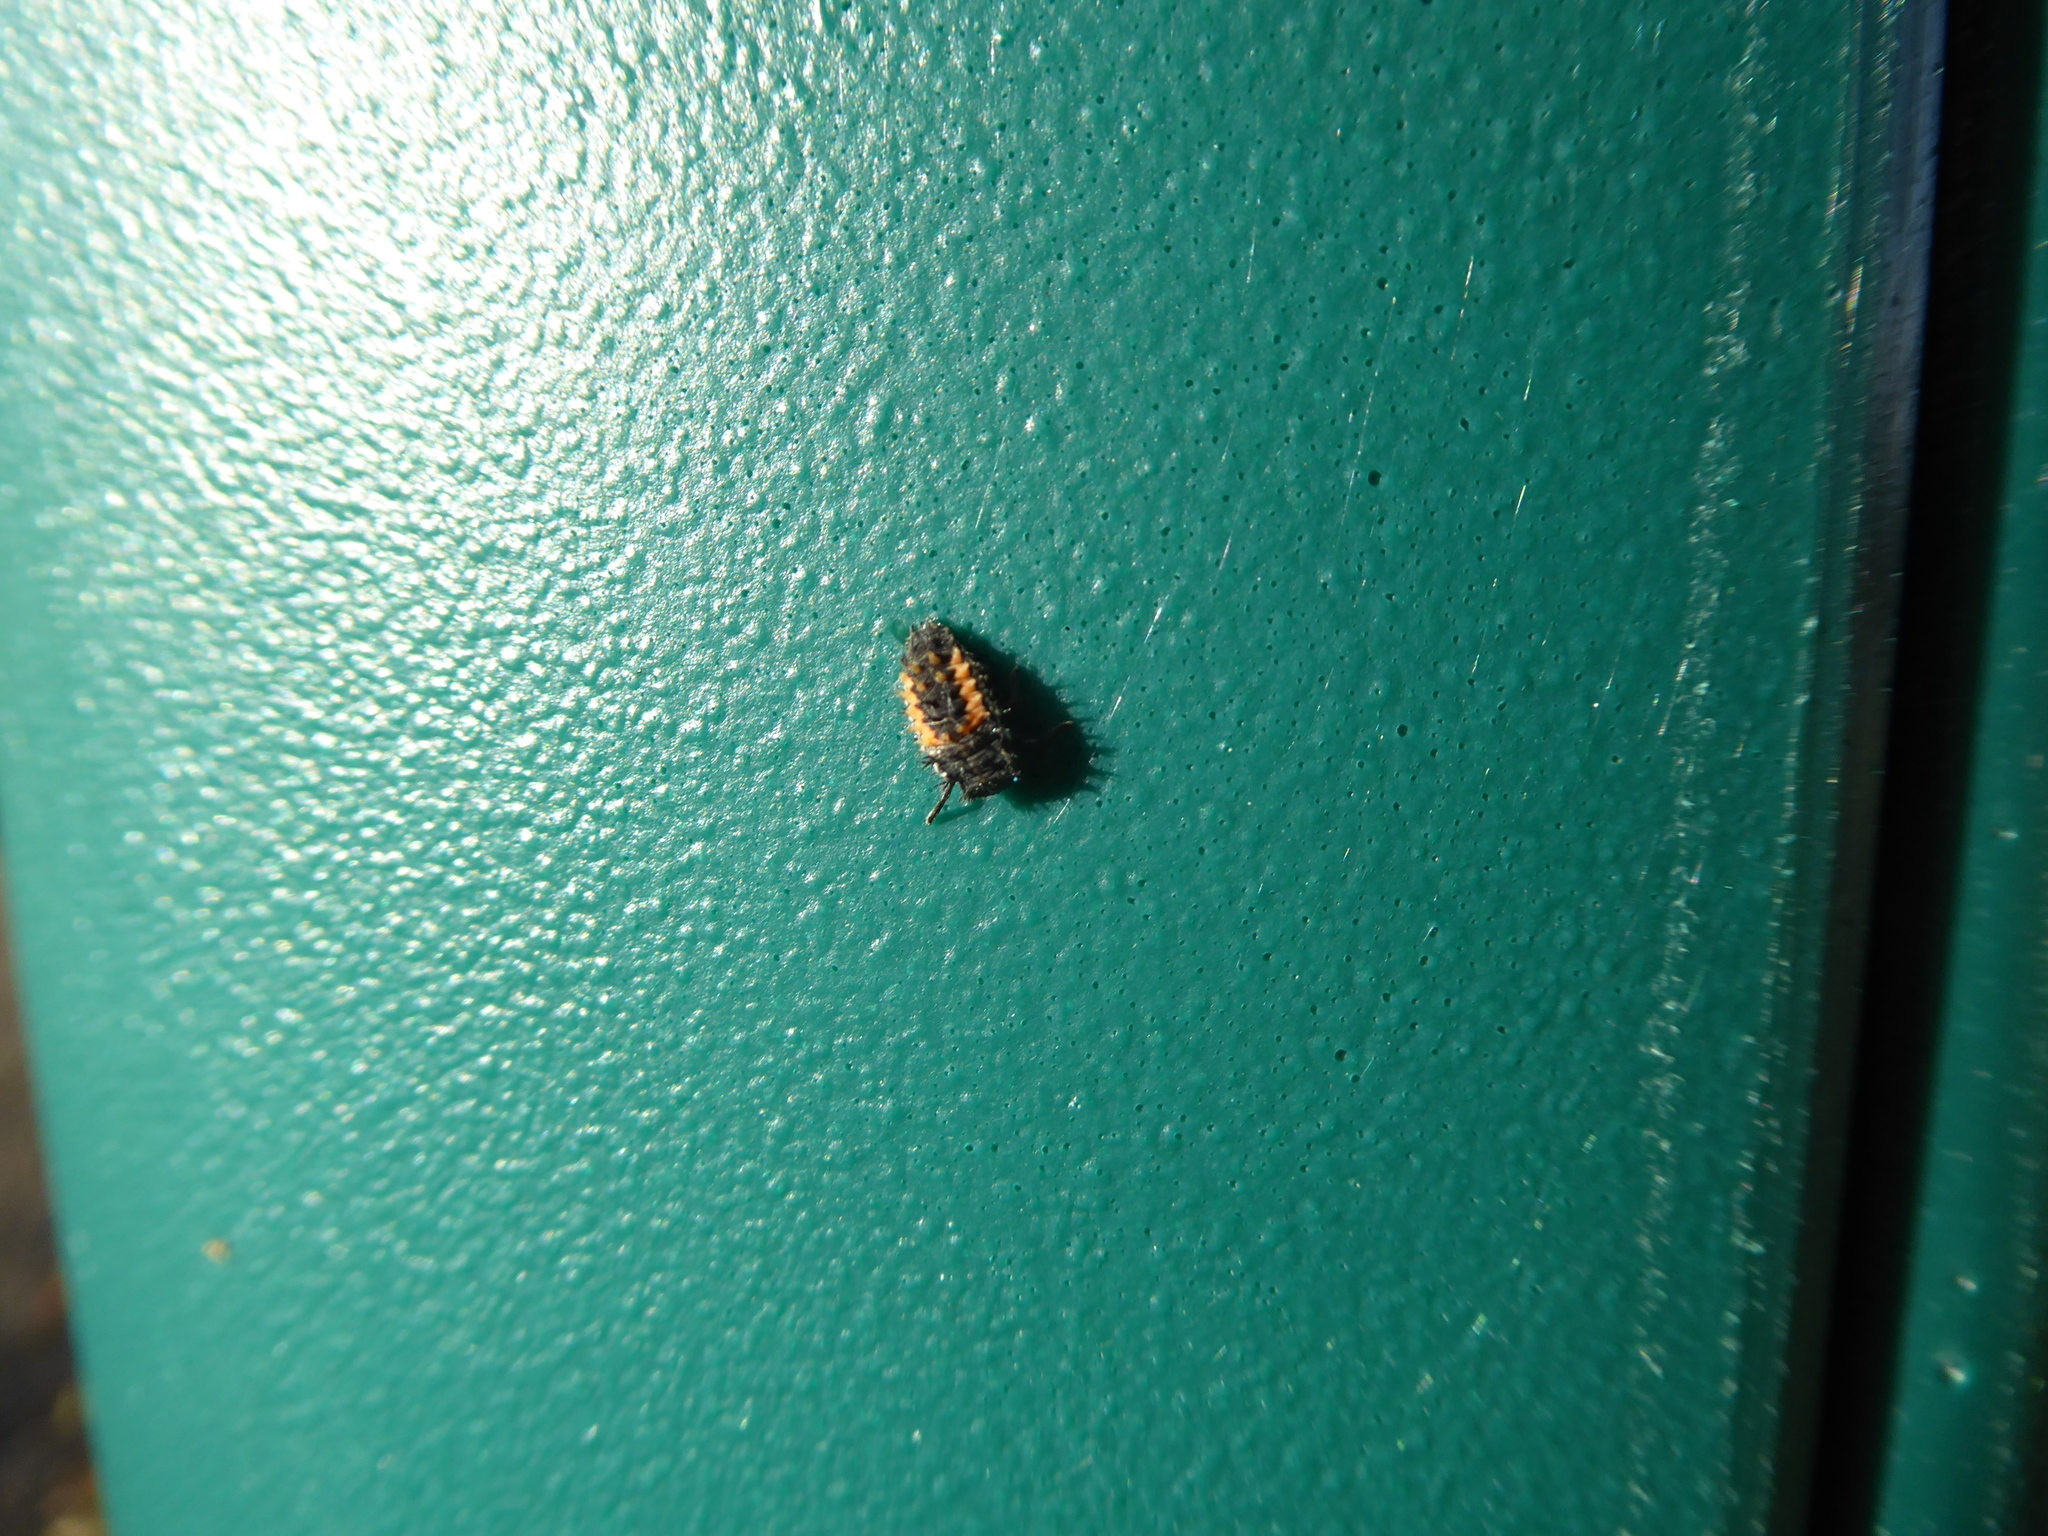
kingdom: Animalia
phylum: Arthropoda
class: Insecta
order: Coleoptera
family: Coccinellidae
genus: Harmonia
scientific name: Harmonia axyridis
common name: Harlequin ladybird
